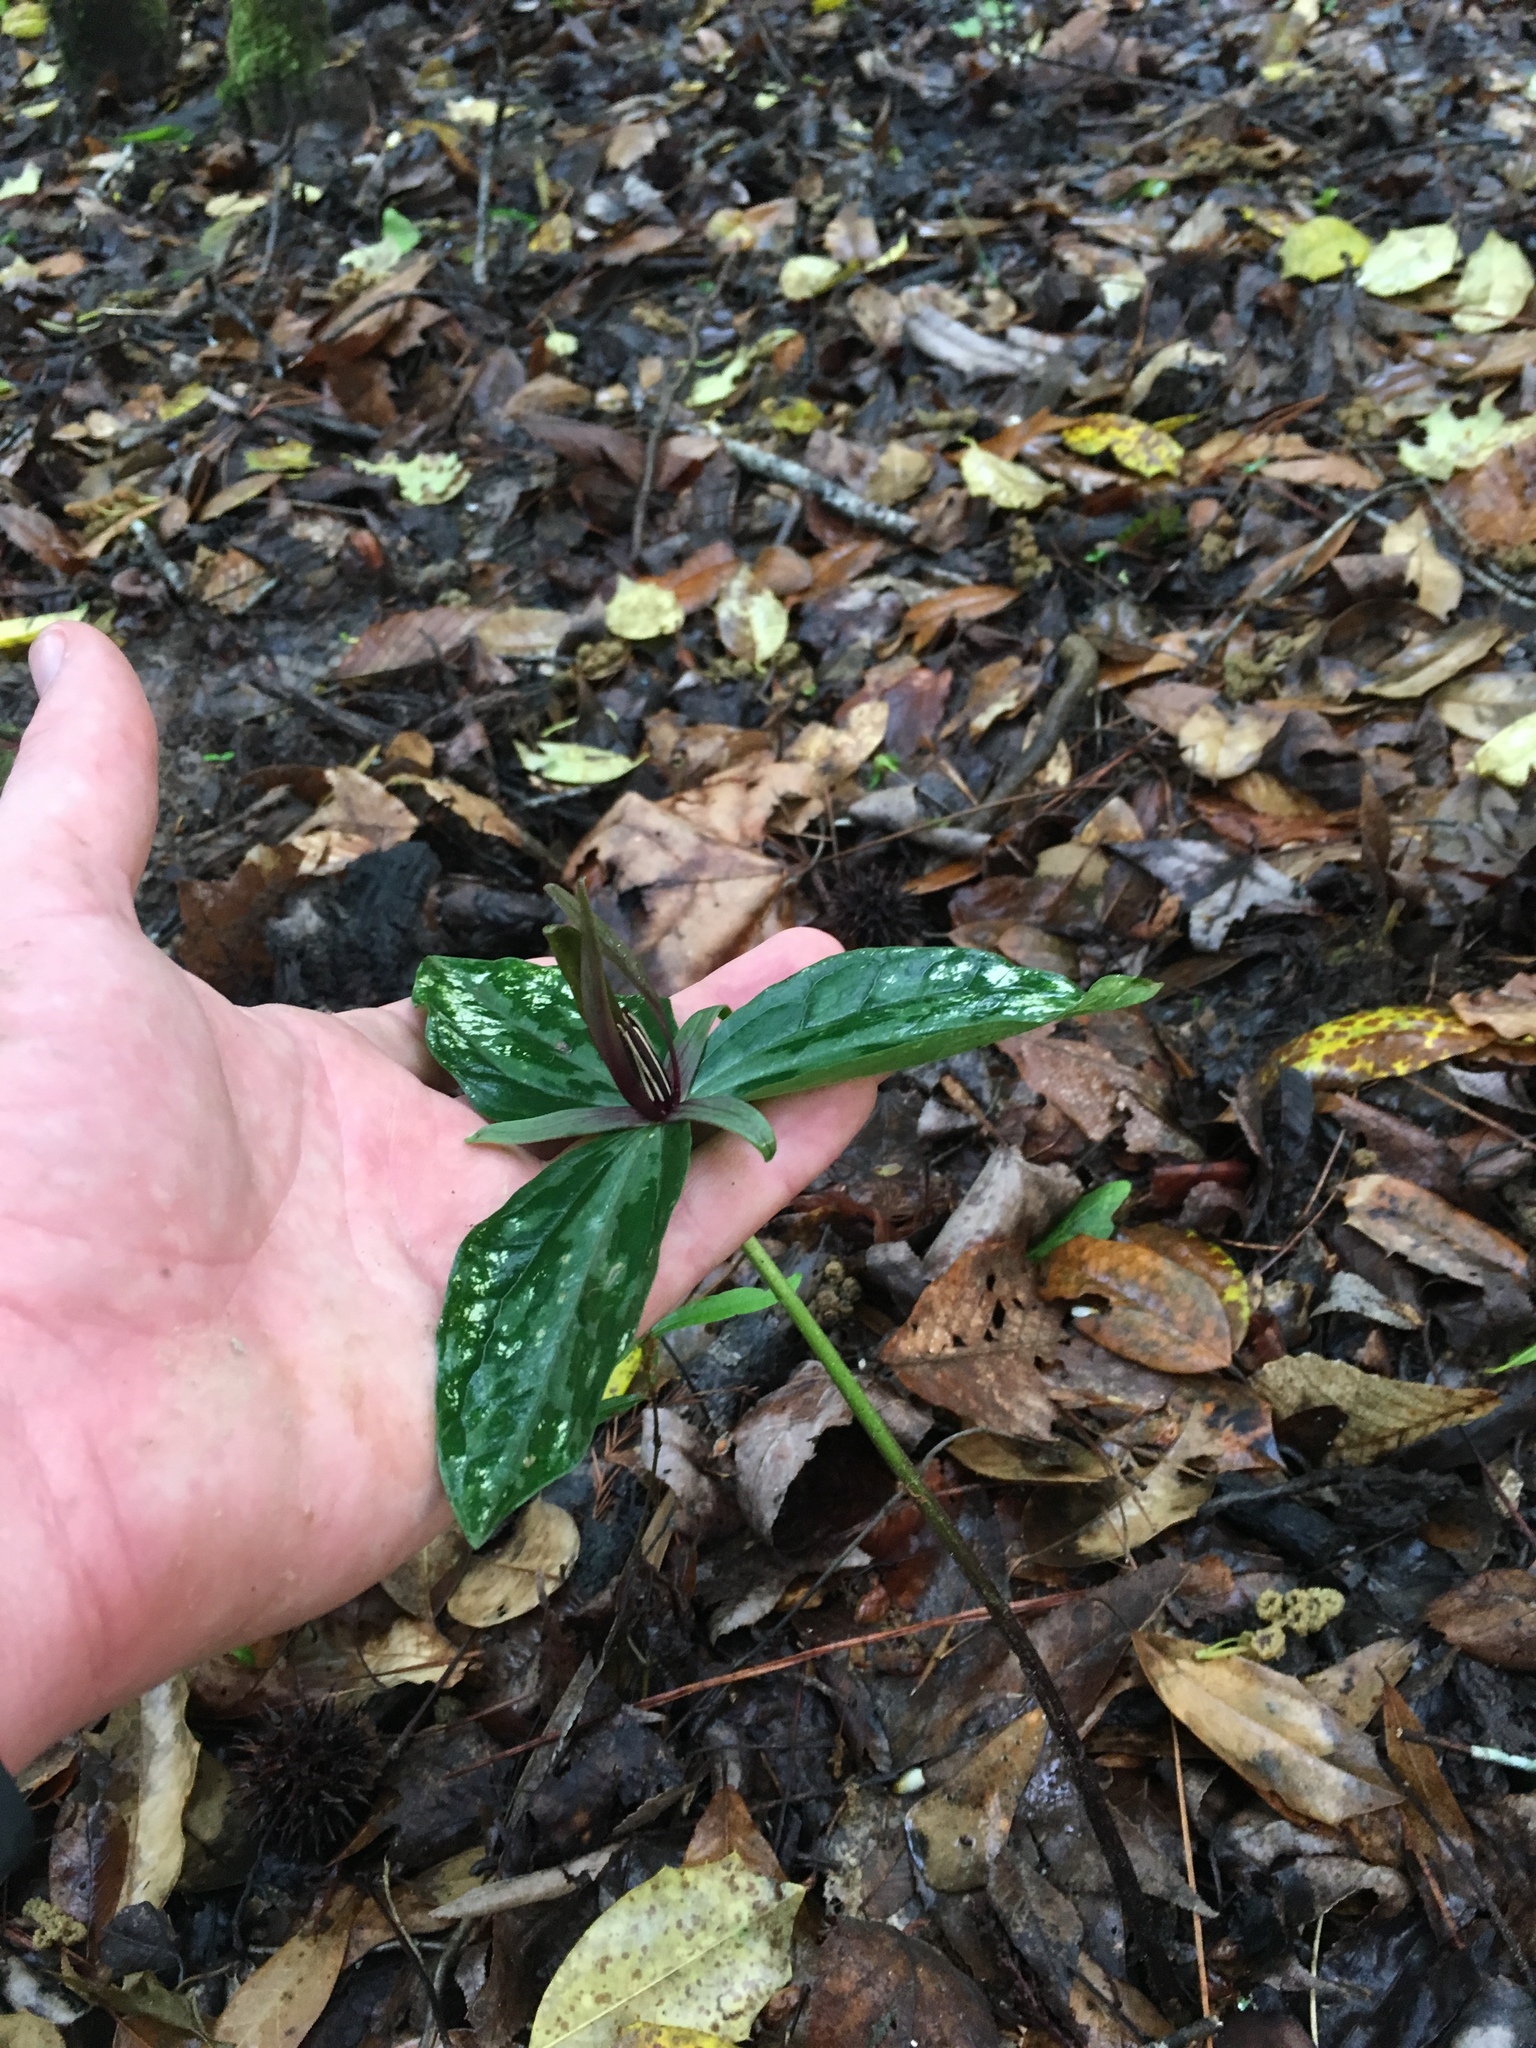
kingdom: Plantae
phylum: Tracheophyta
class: Liliopsida
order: Liliales
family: Melanthiaceae
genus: Trillium
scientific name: Trillium gracile
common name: Graceful trillium
